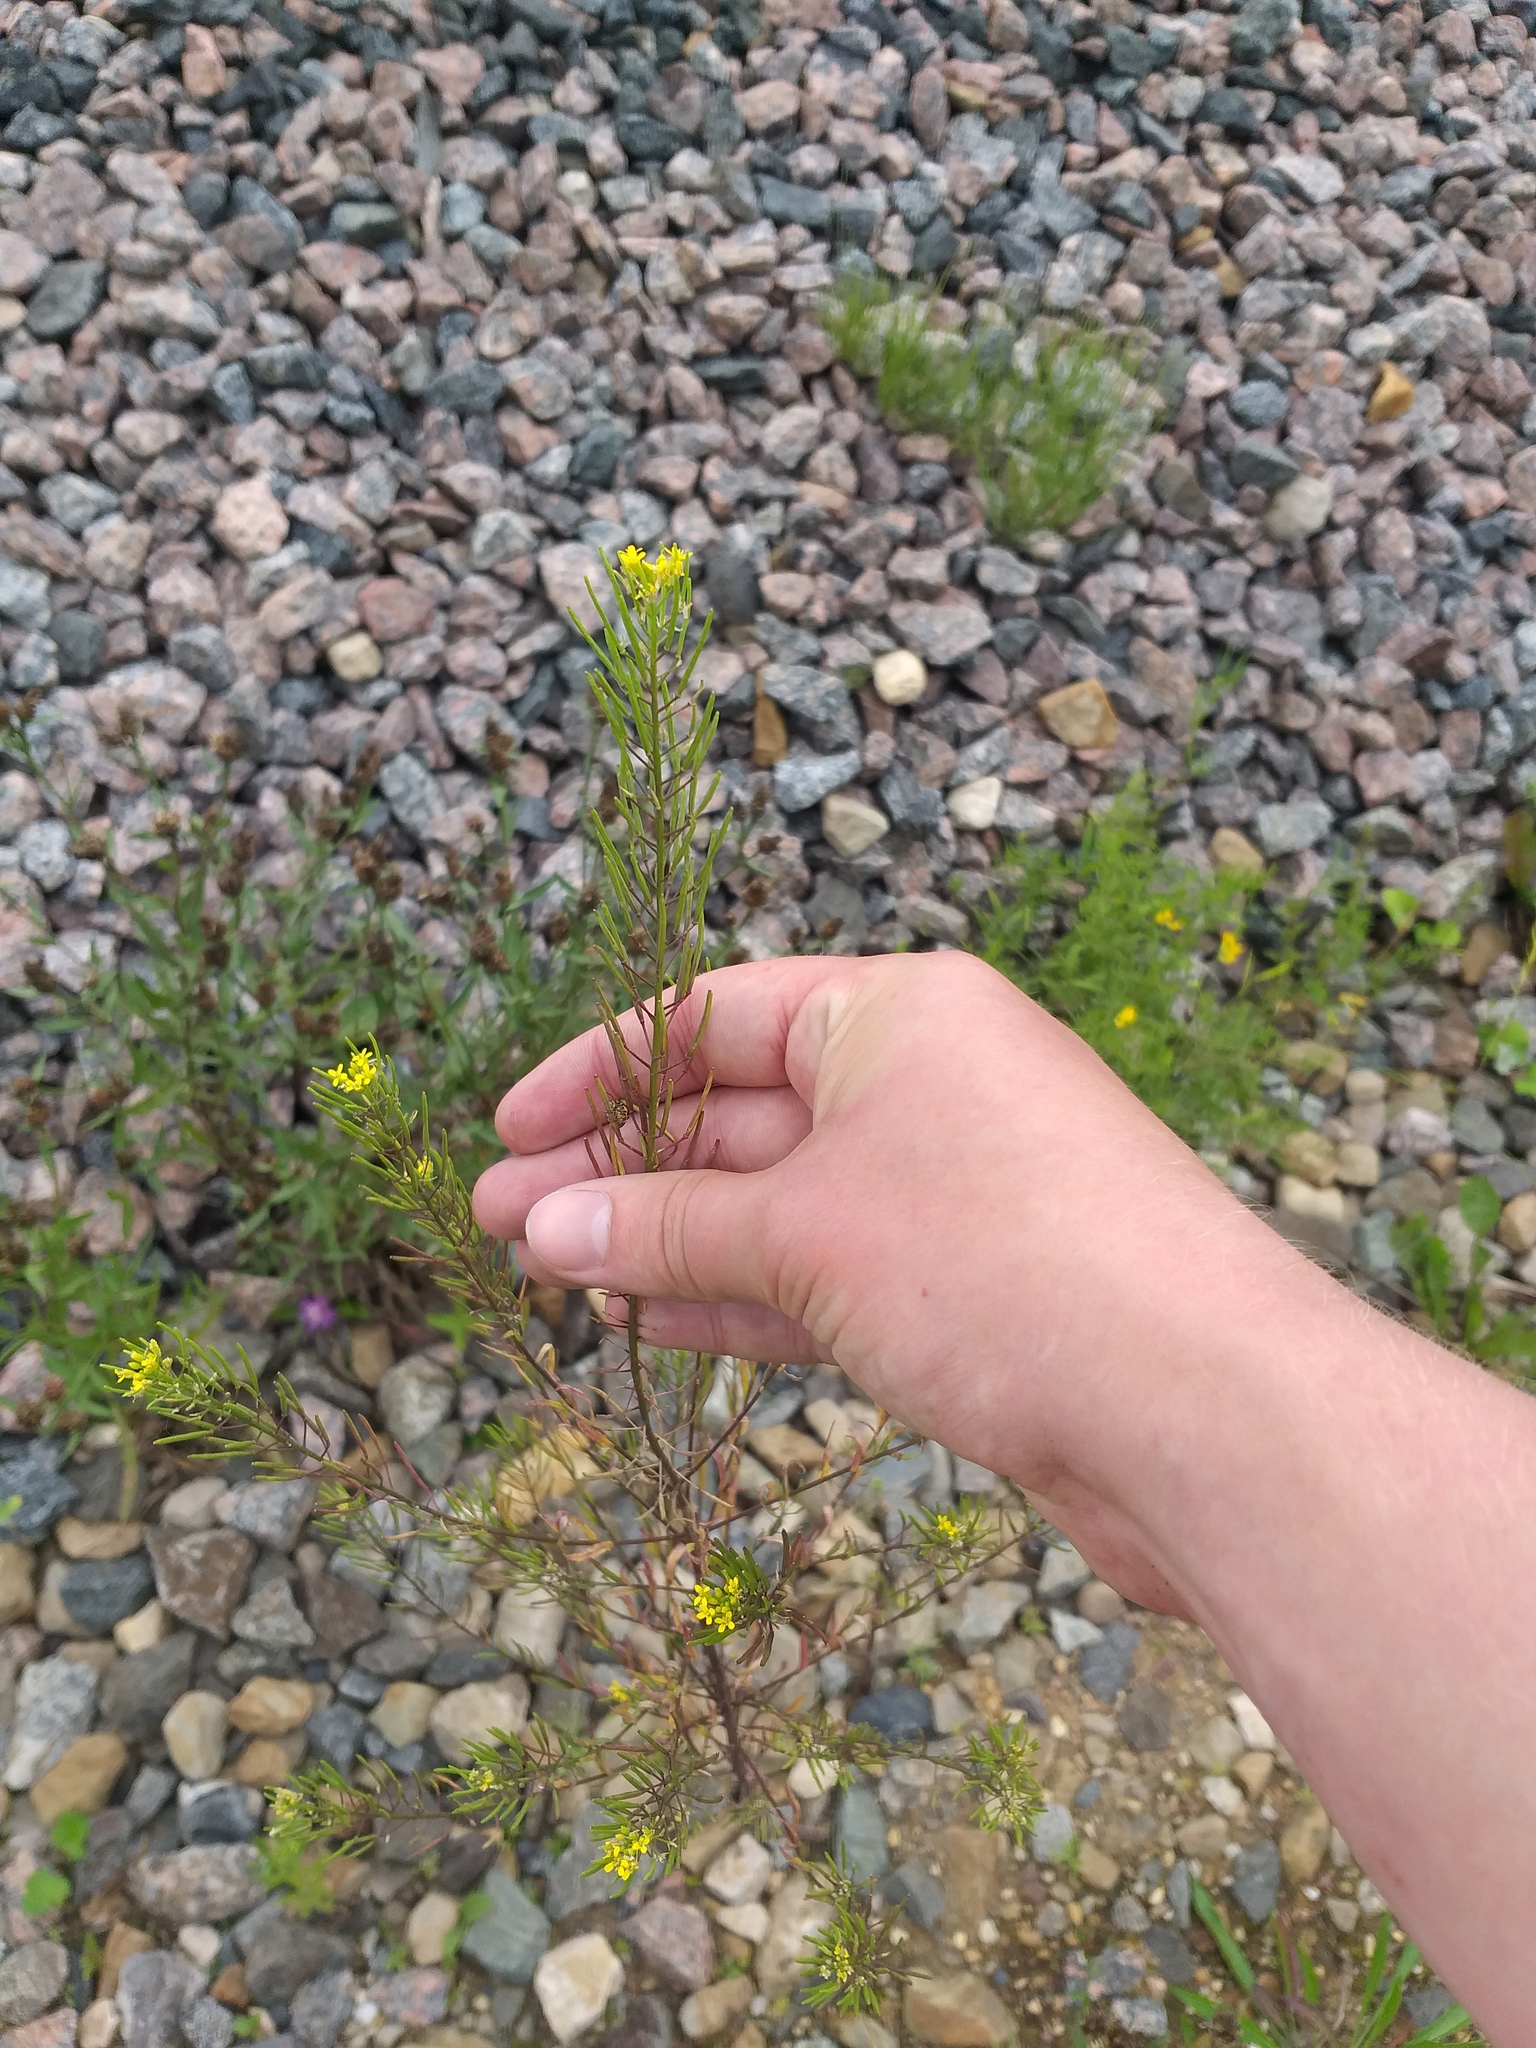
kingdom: Plantae
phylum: Tracheophyta
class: Magnoliopsida
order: Brassicales
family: Brassicaceae
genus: Erysimum
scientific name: Erysimum cheiranthoides
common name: Treacle mustard
